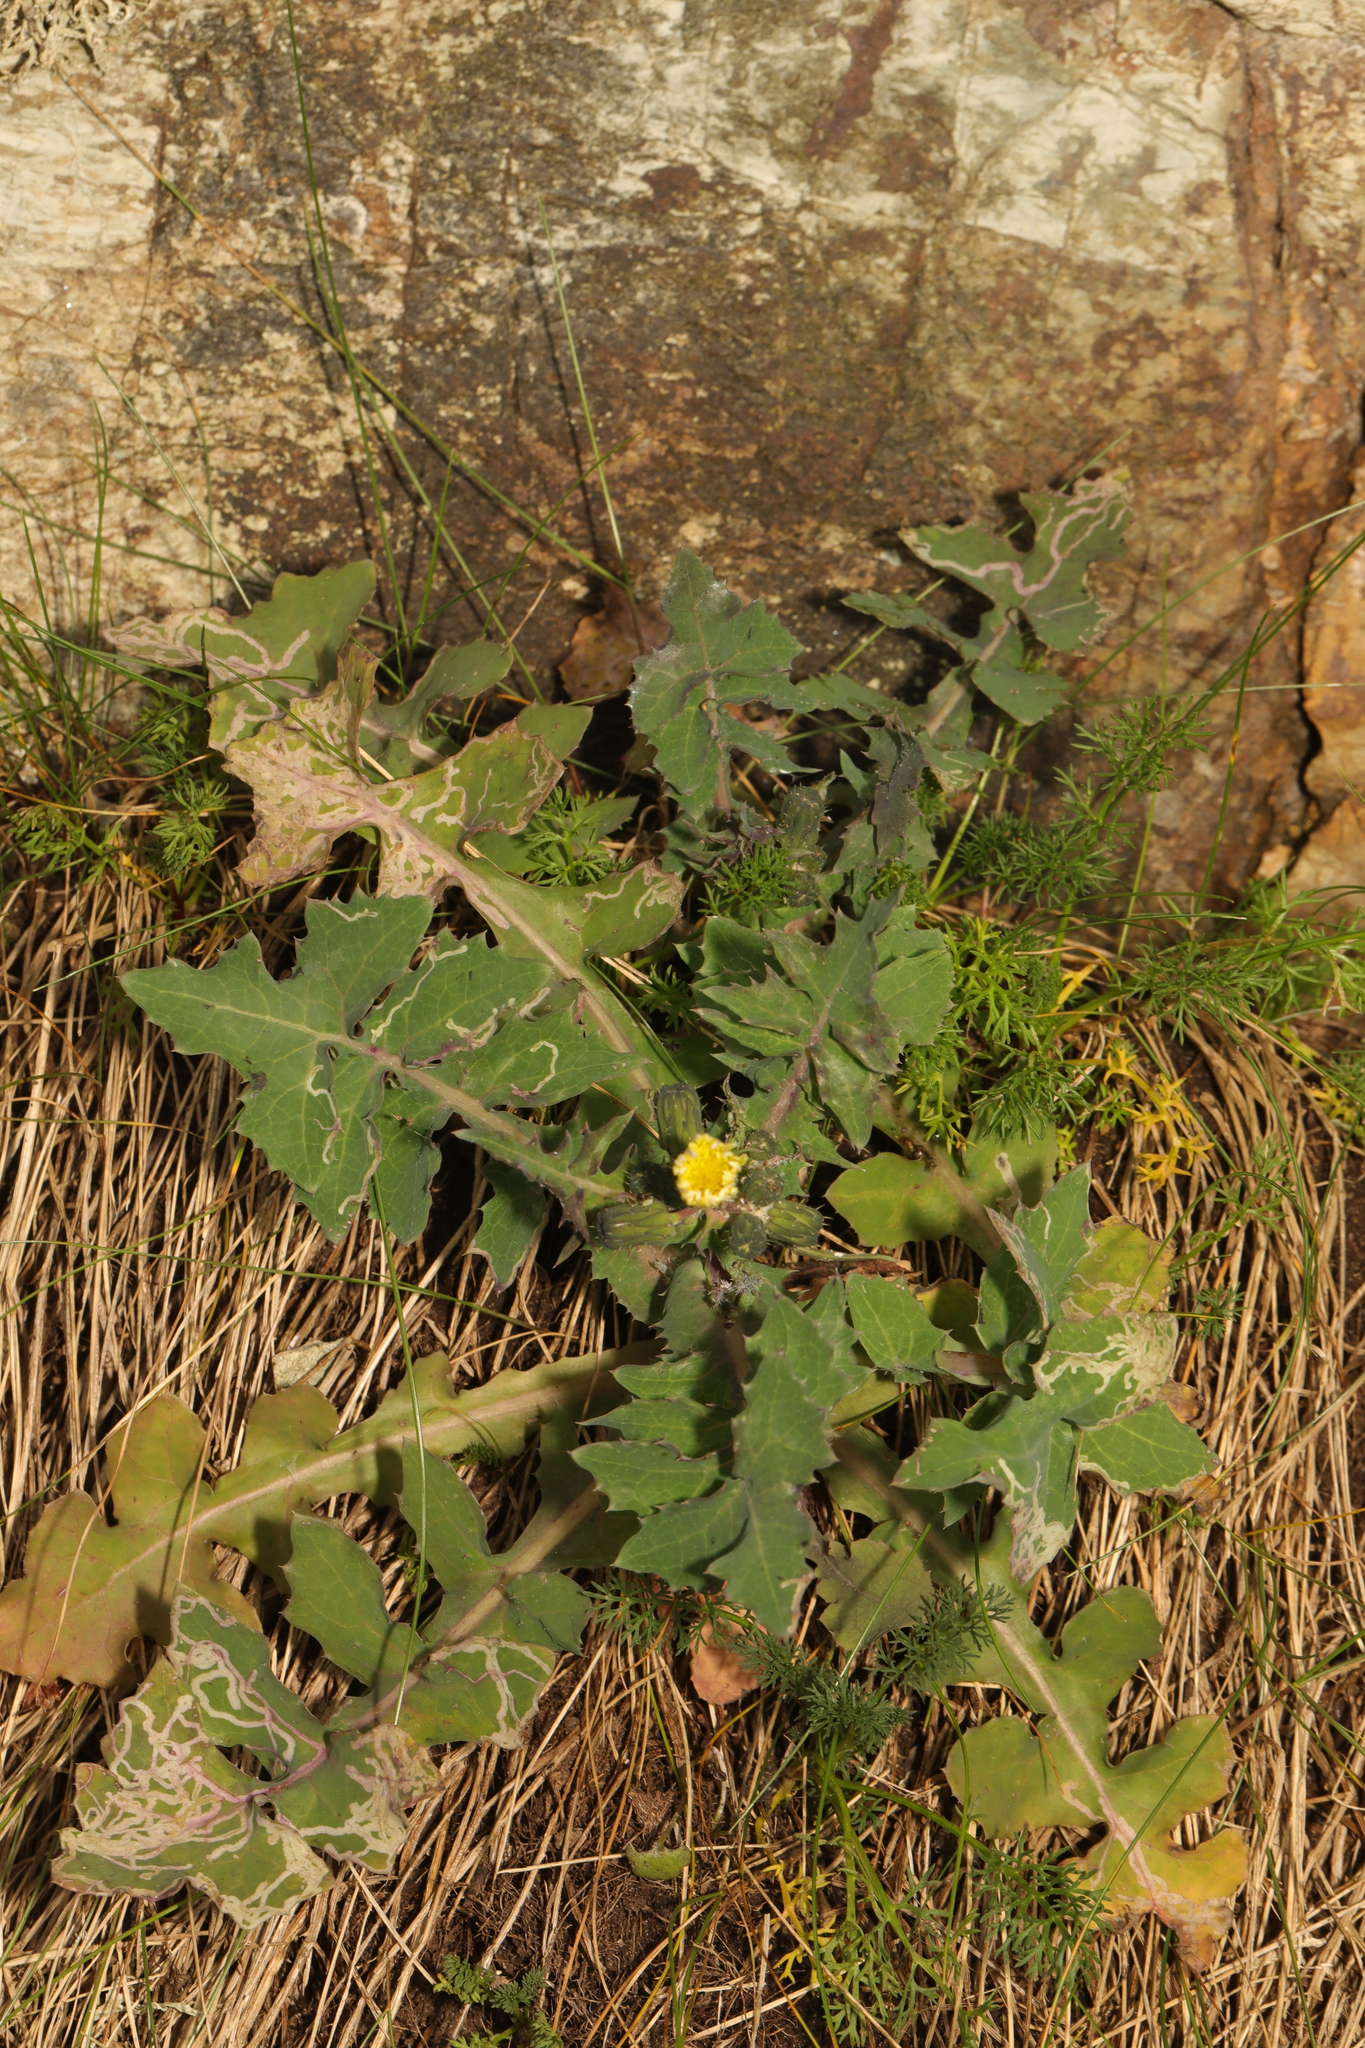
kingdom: Plantae
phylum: Tracheophyta
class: Magnoliopsida
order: Asterales
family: Asteraceae
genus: Sonchus
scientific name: Sonchus oleraceus
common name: Common sowthistle
